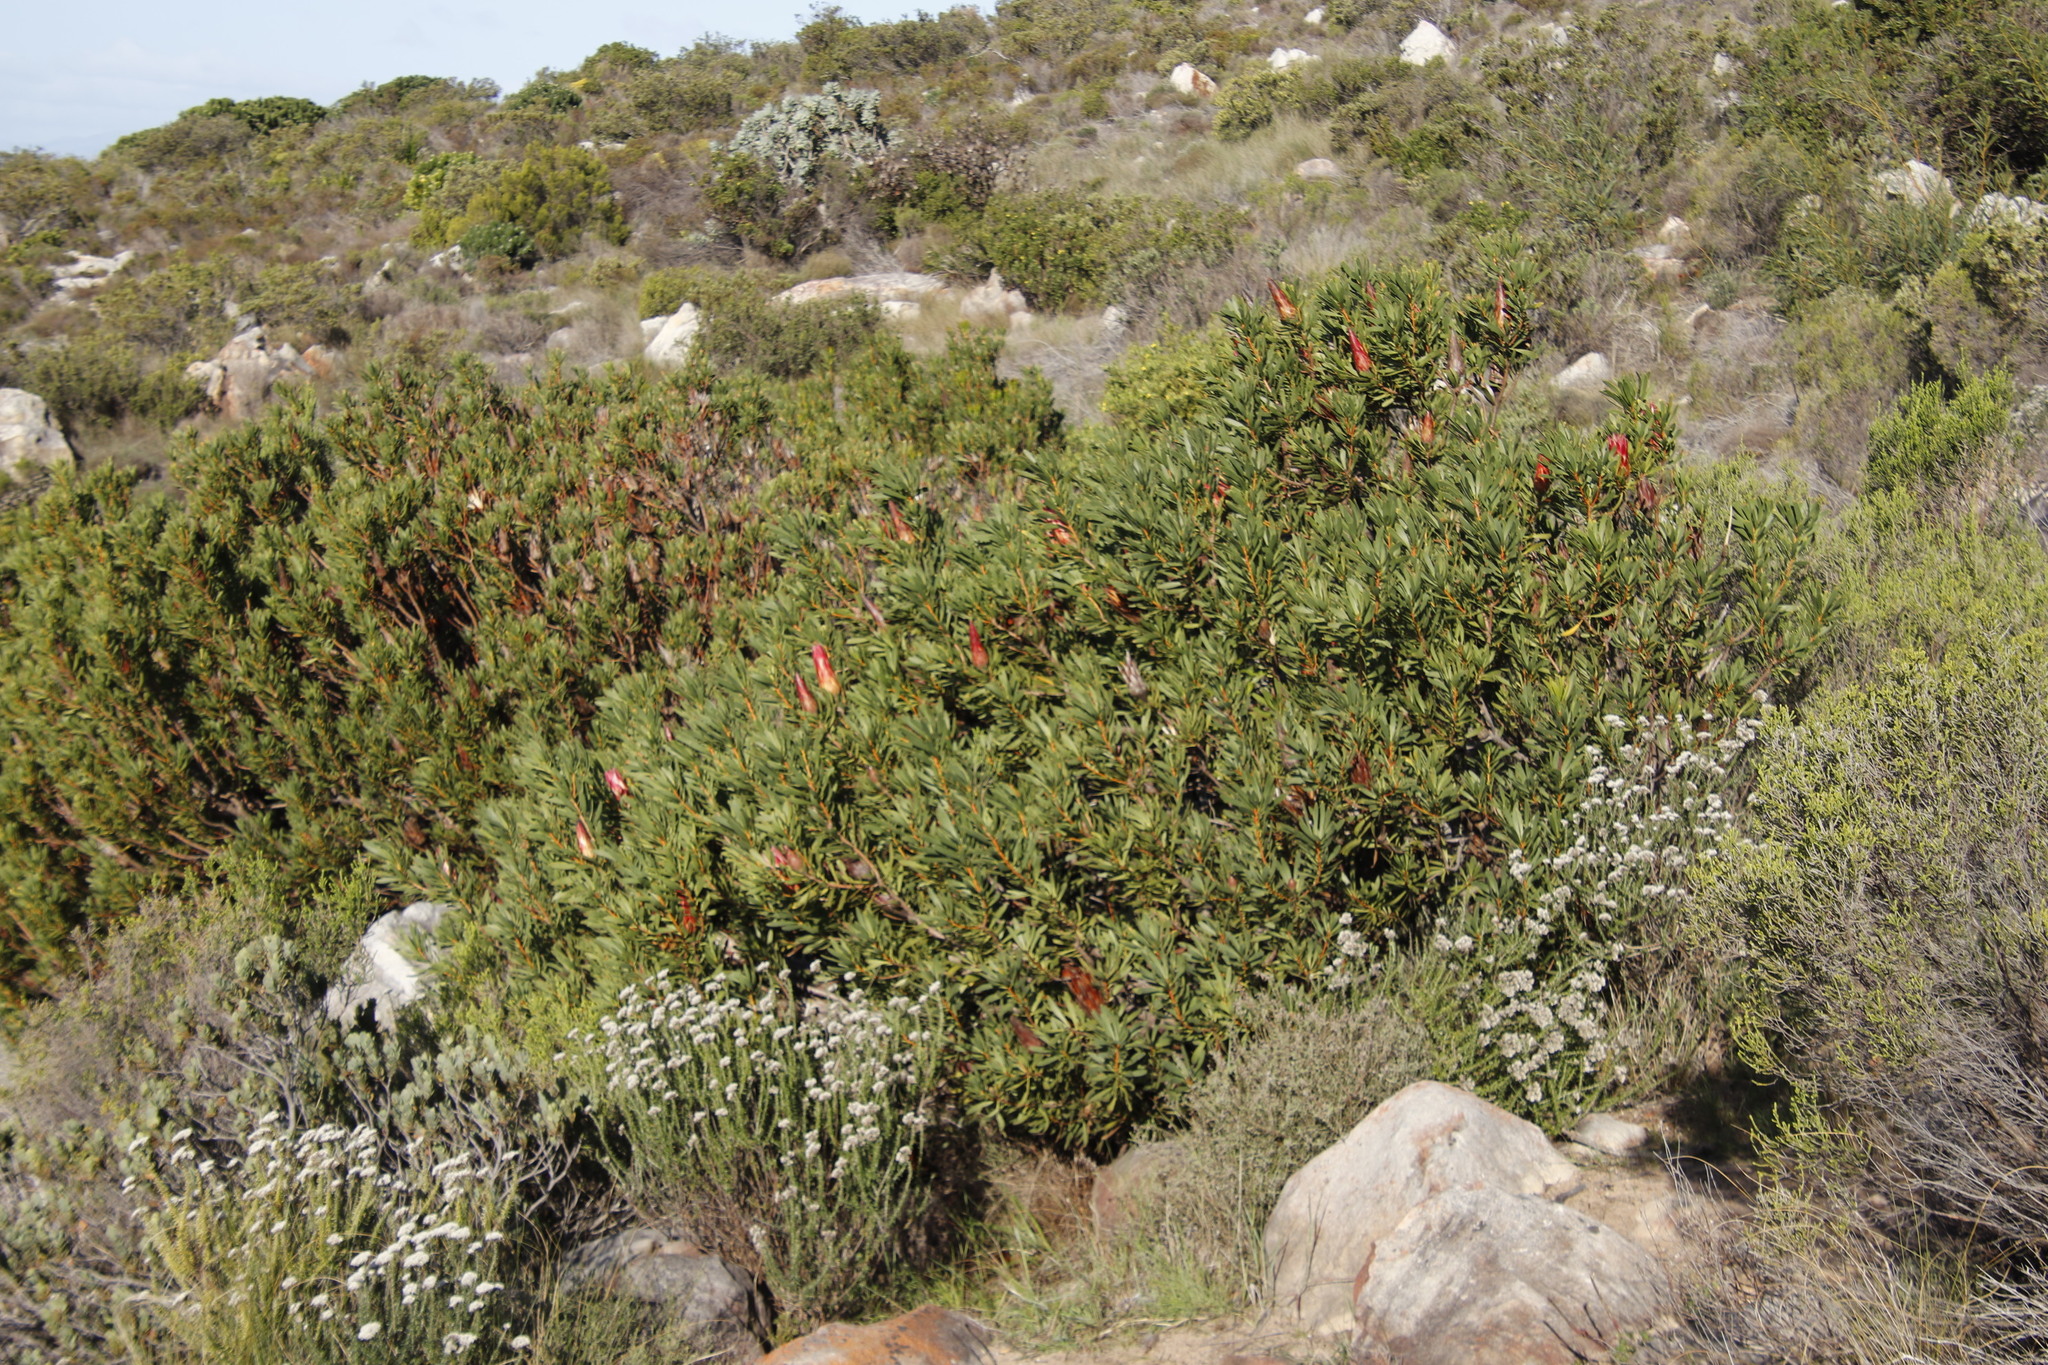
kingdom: Plantae
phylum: Tracheophyta
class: Magnoliopsida
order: Proteales
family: Proteaceae
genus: Protea
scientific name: Protea repens
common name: Sugarbush
